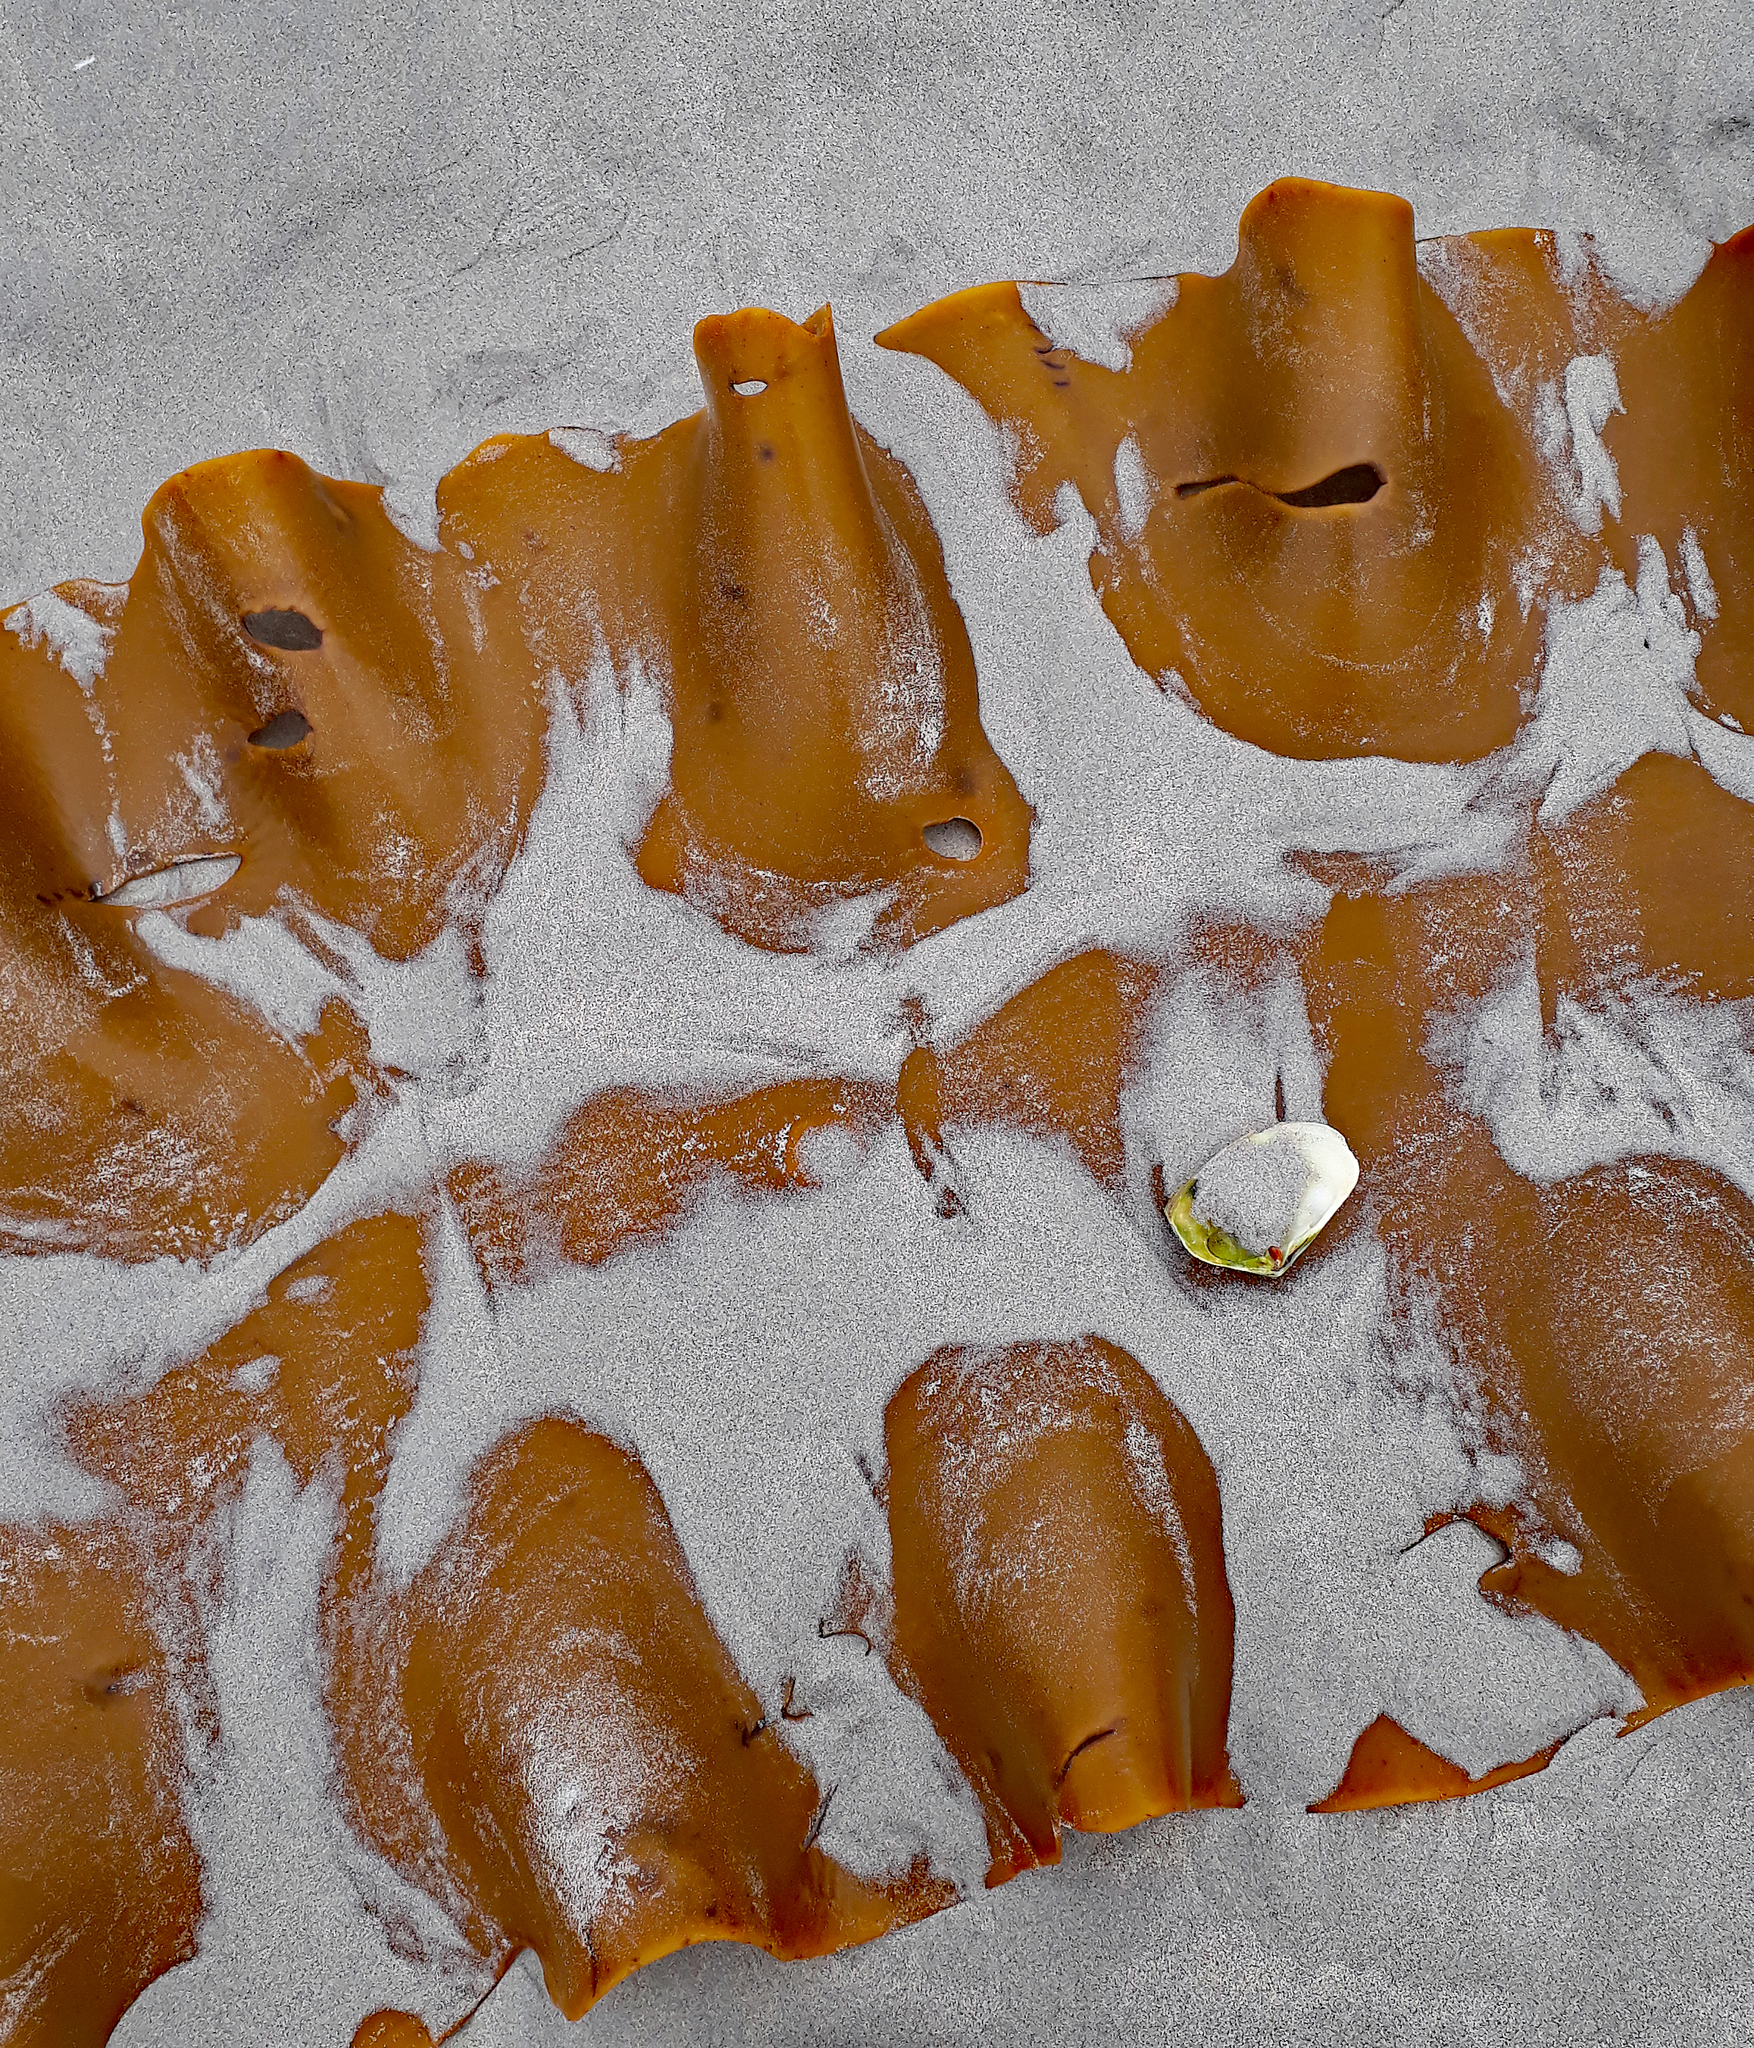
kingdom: Chromista
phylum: Ochrophyta
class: Phaeophyceae
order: Fucales
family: Durvillaeaceae
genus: Durvillaea
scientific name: Durvillaea chathamensis
